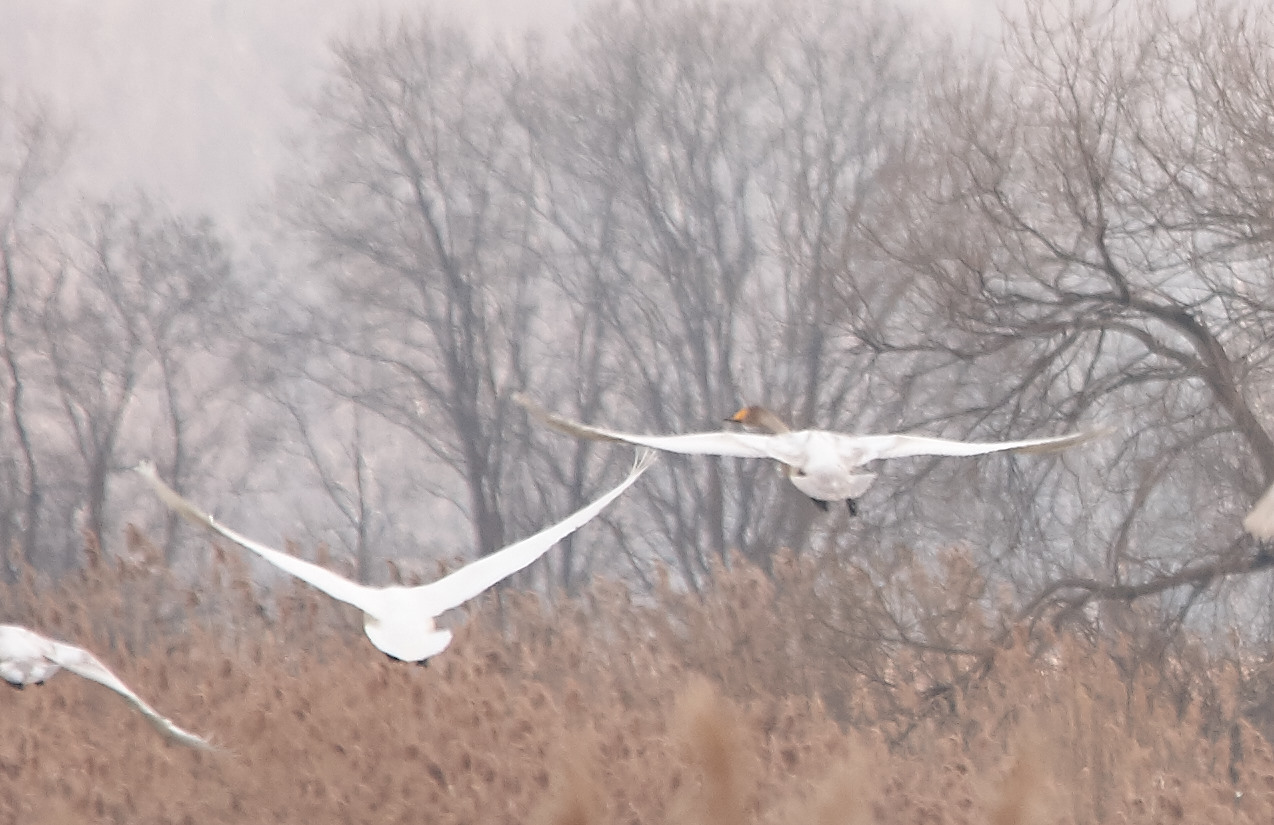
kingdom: Animalia
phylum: Chordata
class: Aves
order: Anseriformes
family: Anatidae
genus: Cygnus
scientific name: Cygnus cygnus
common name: Whooper swan
